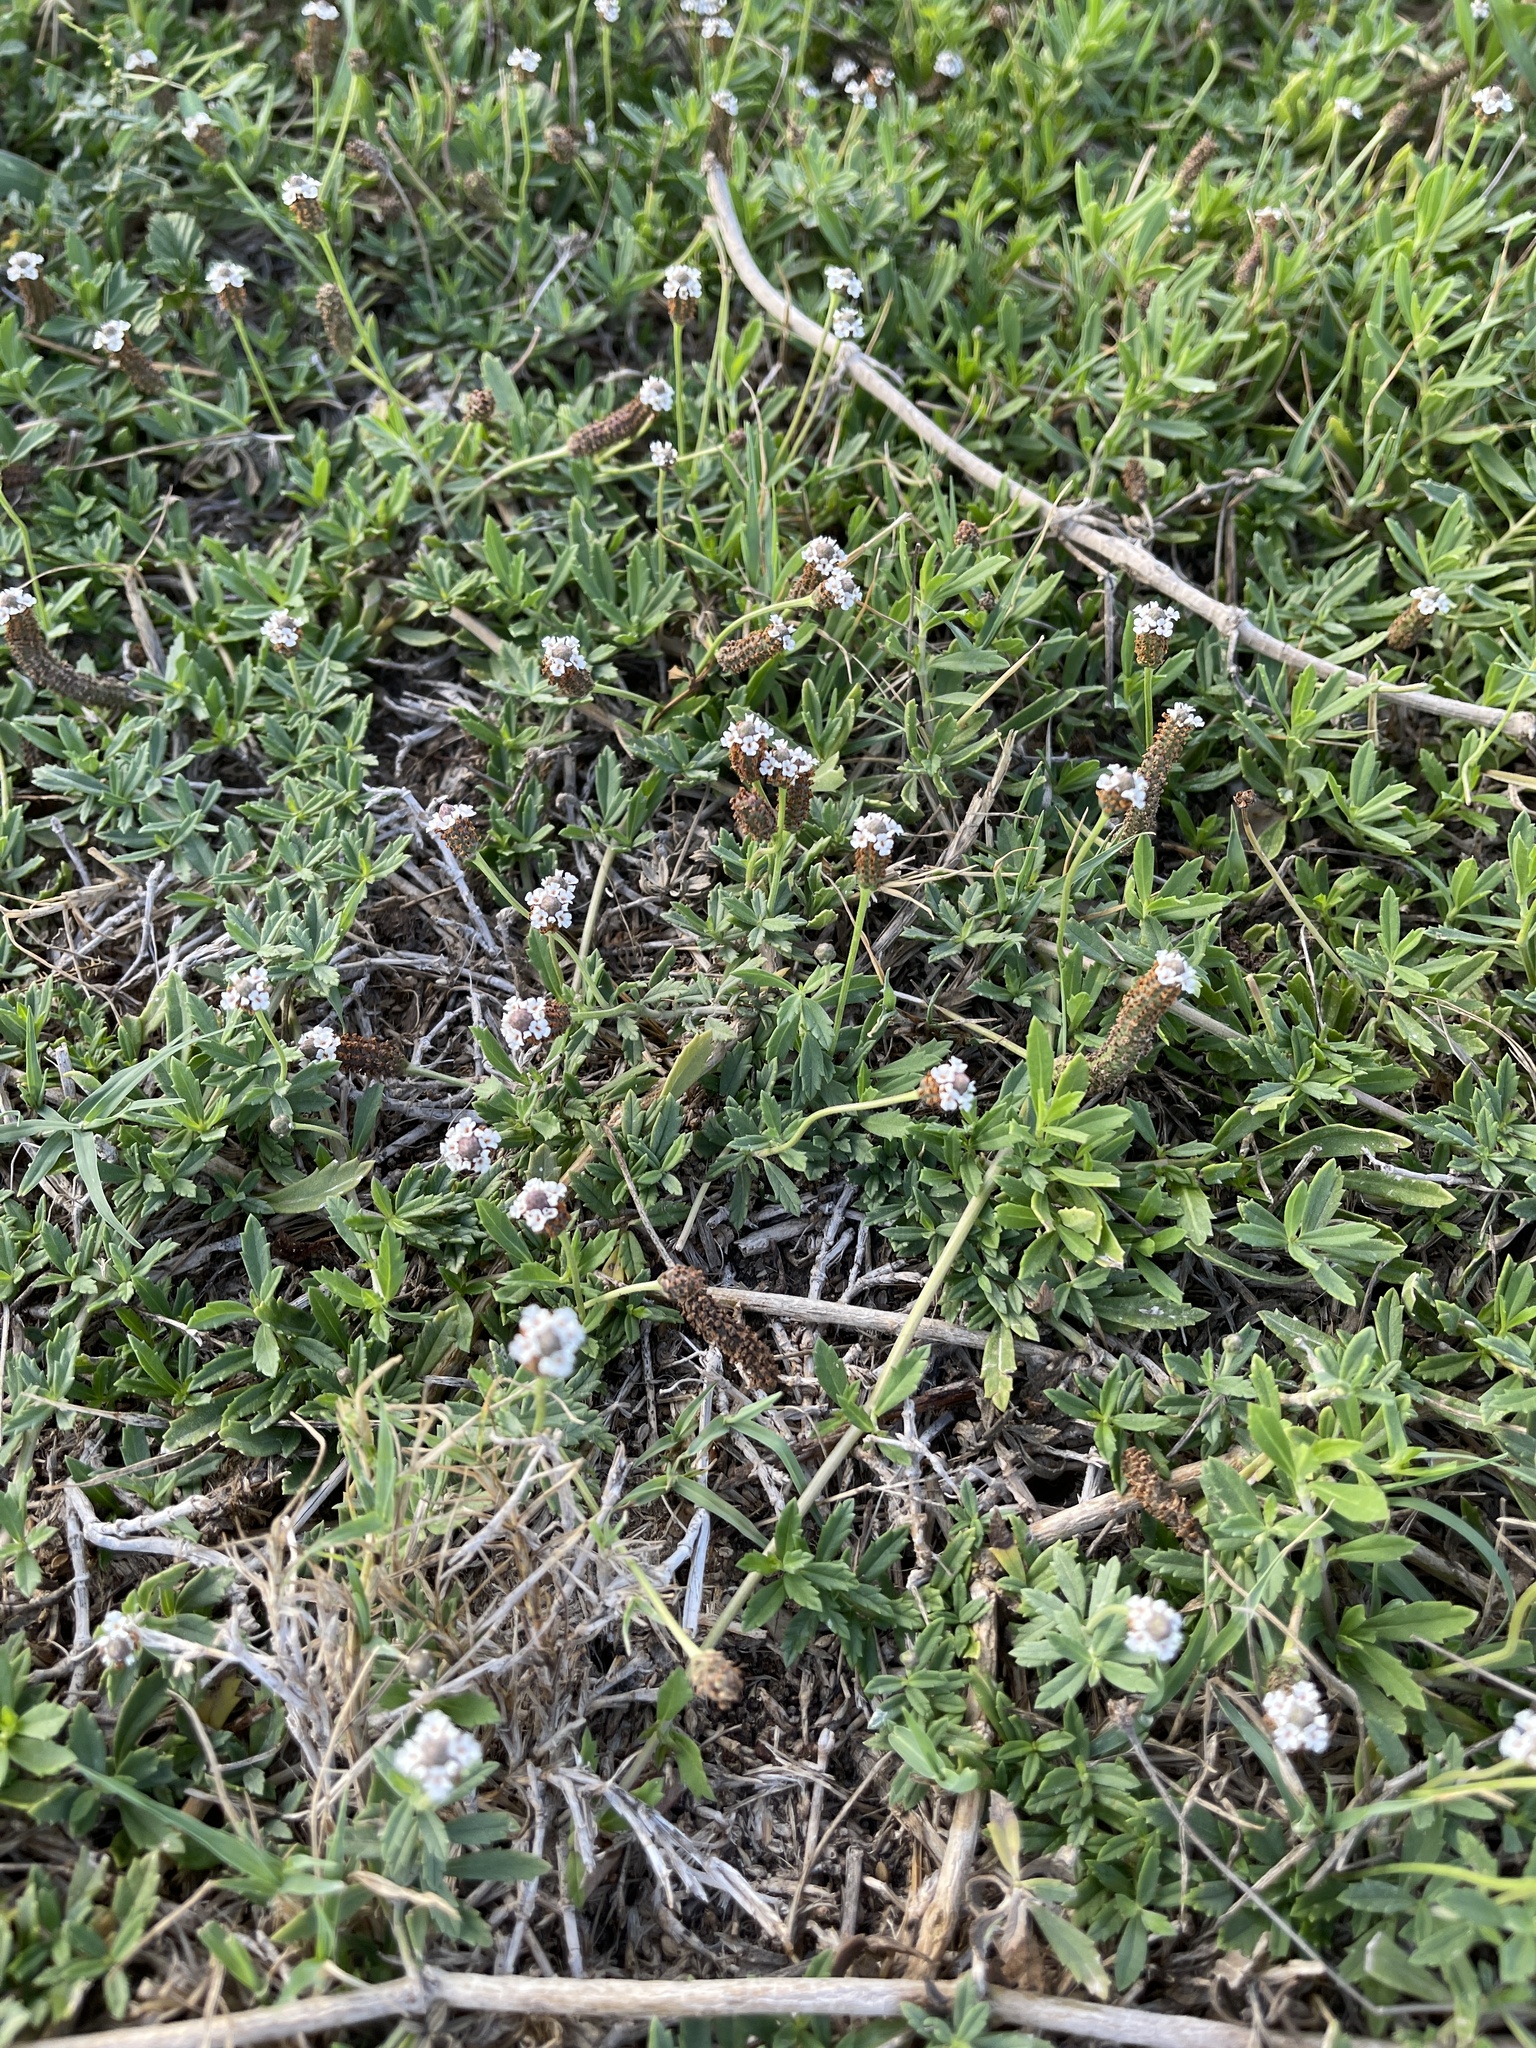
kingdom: Plantae
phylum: Tracheophyta
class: Magnoliopsida
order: Lamiales
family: Verbenaceae
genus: Phyla
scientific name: Phyla nodiflora
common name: Frogfruit
